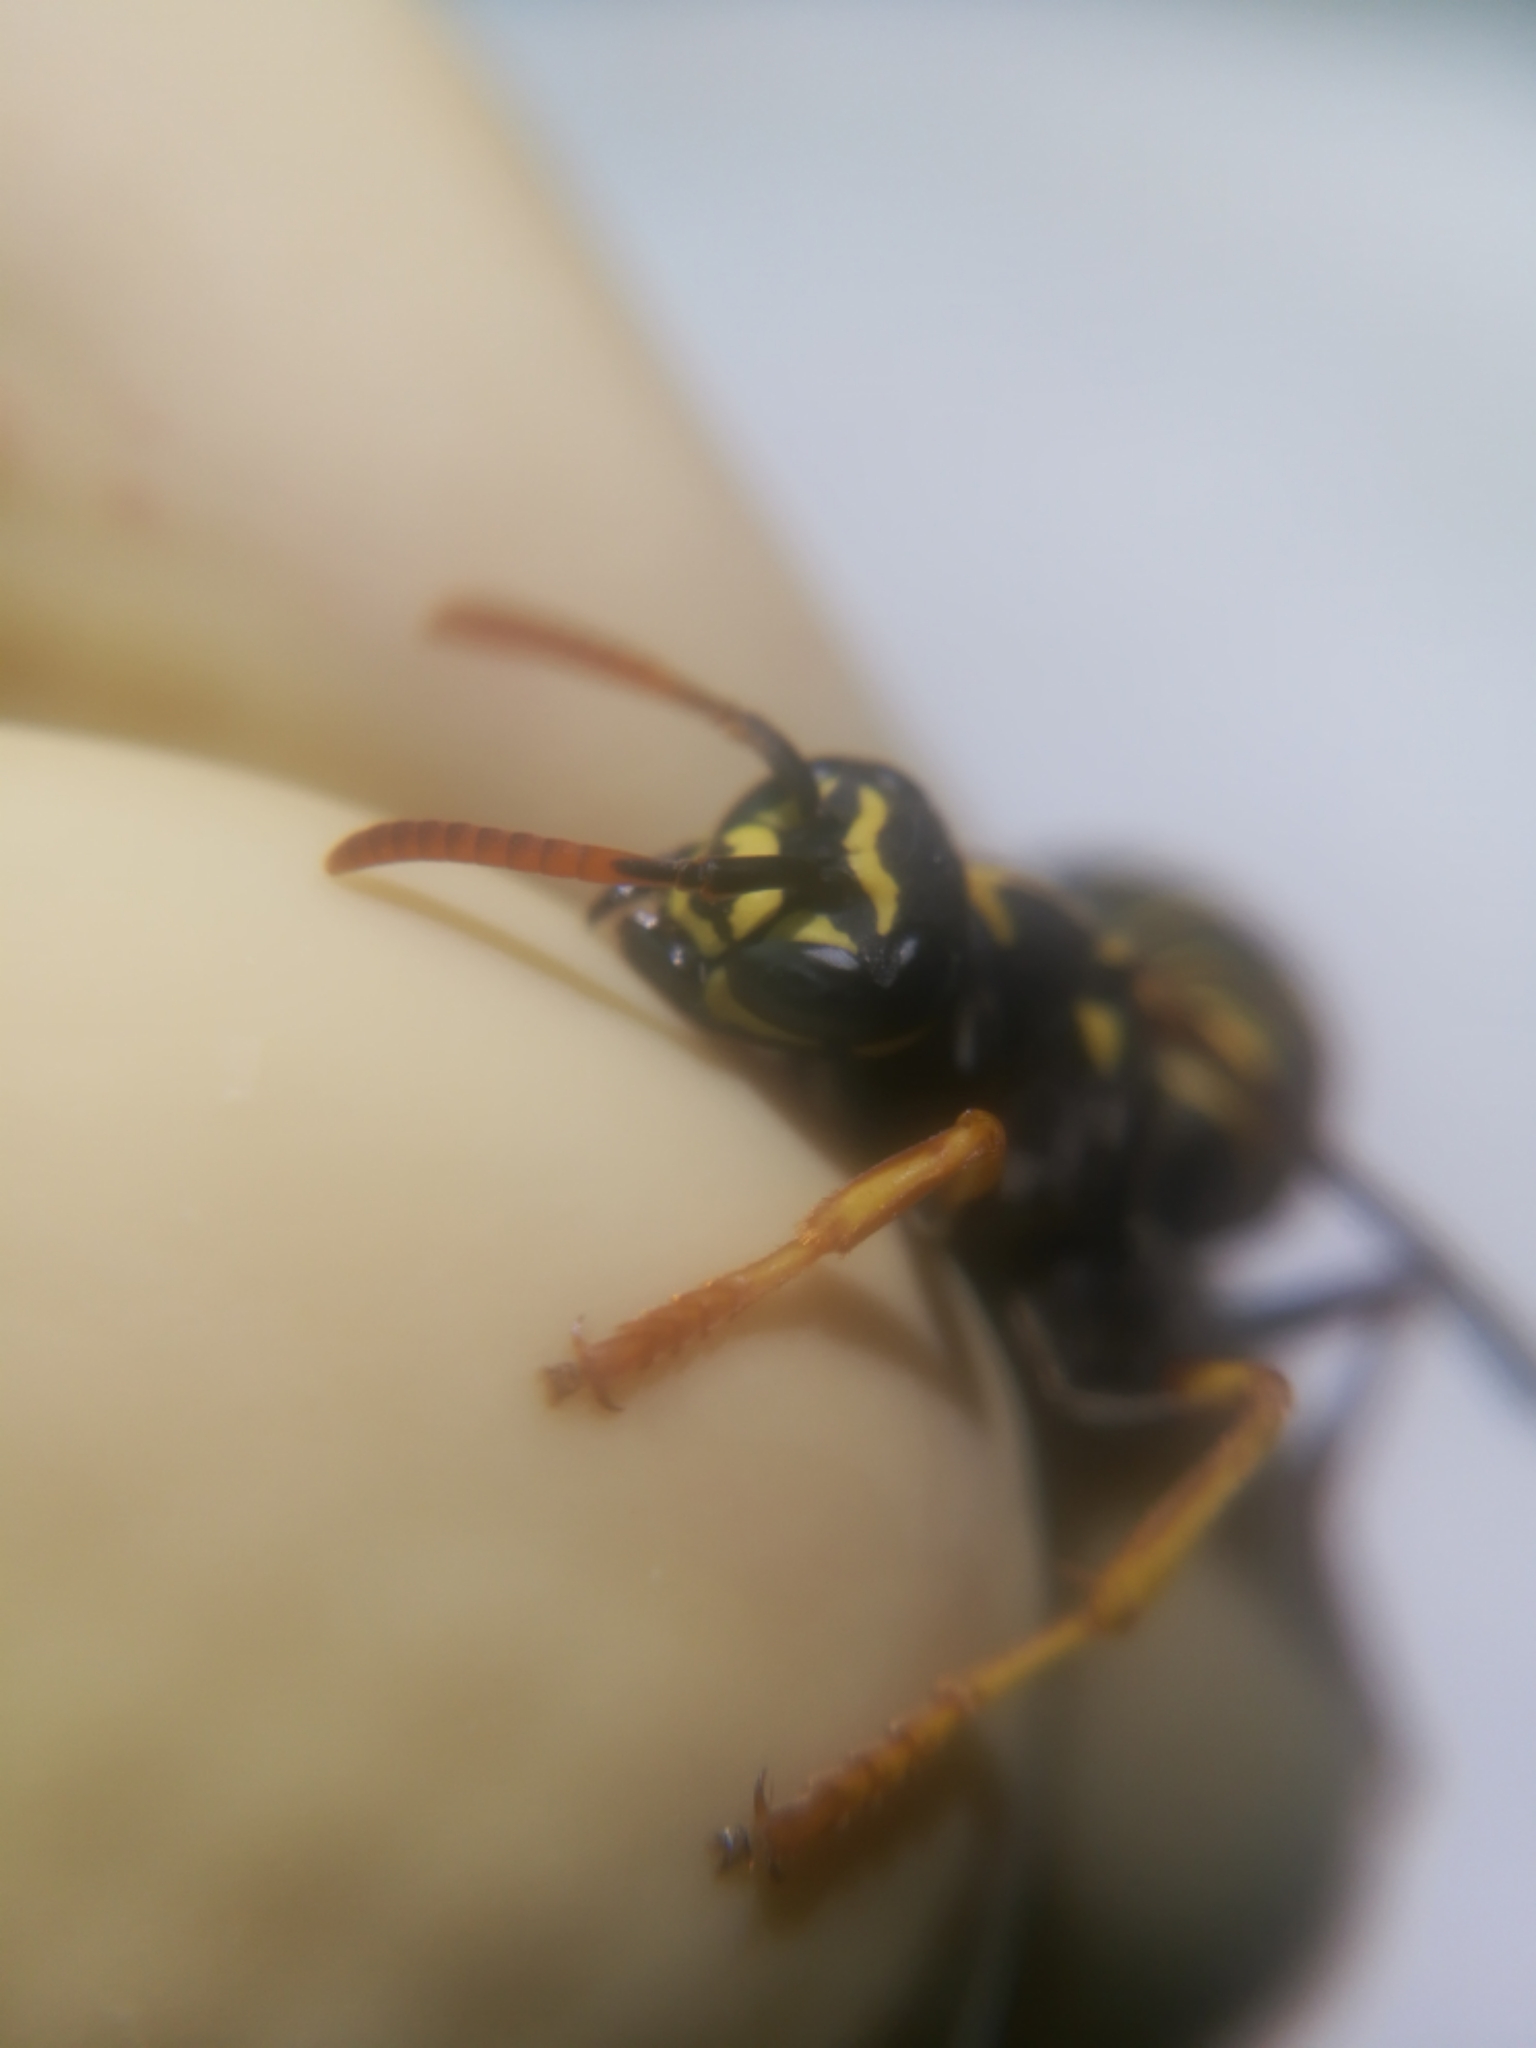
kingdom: Animalia
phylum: Arthropoda
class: Insecta
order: Hymenoptera
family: Eumenidae
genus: Polistes
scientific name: Polistes nimpha
